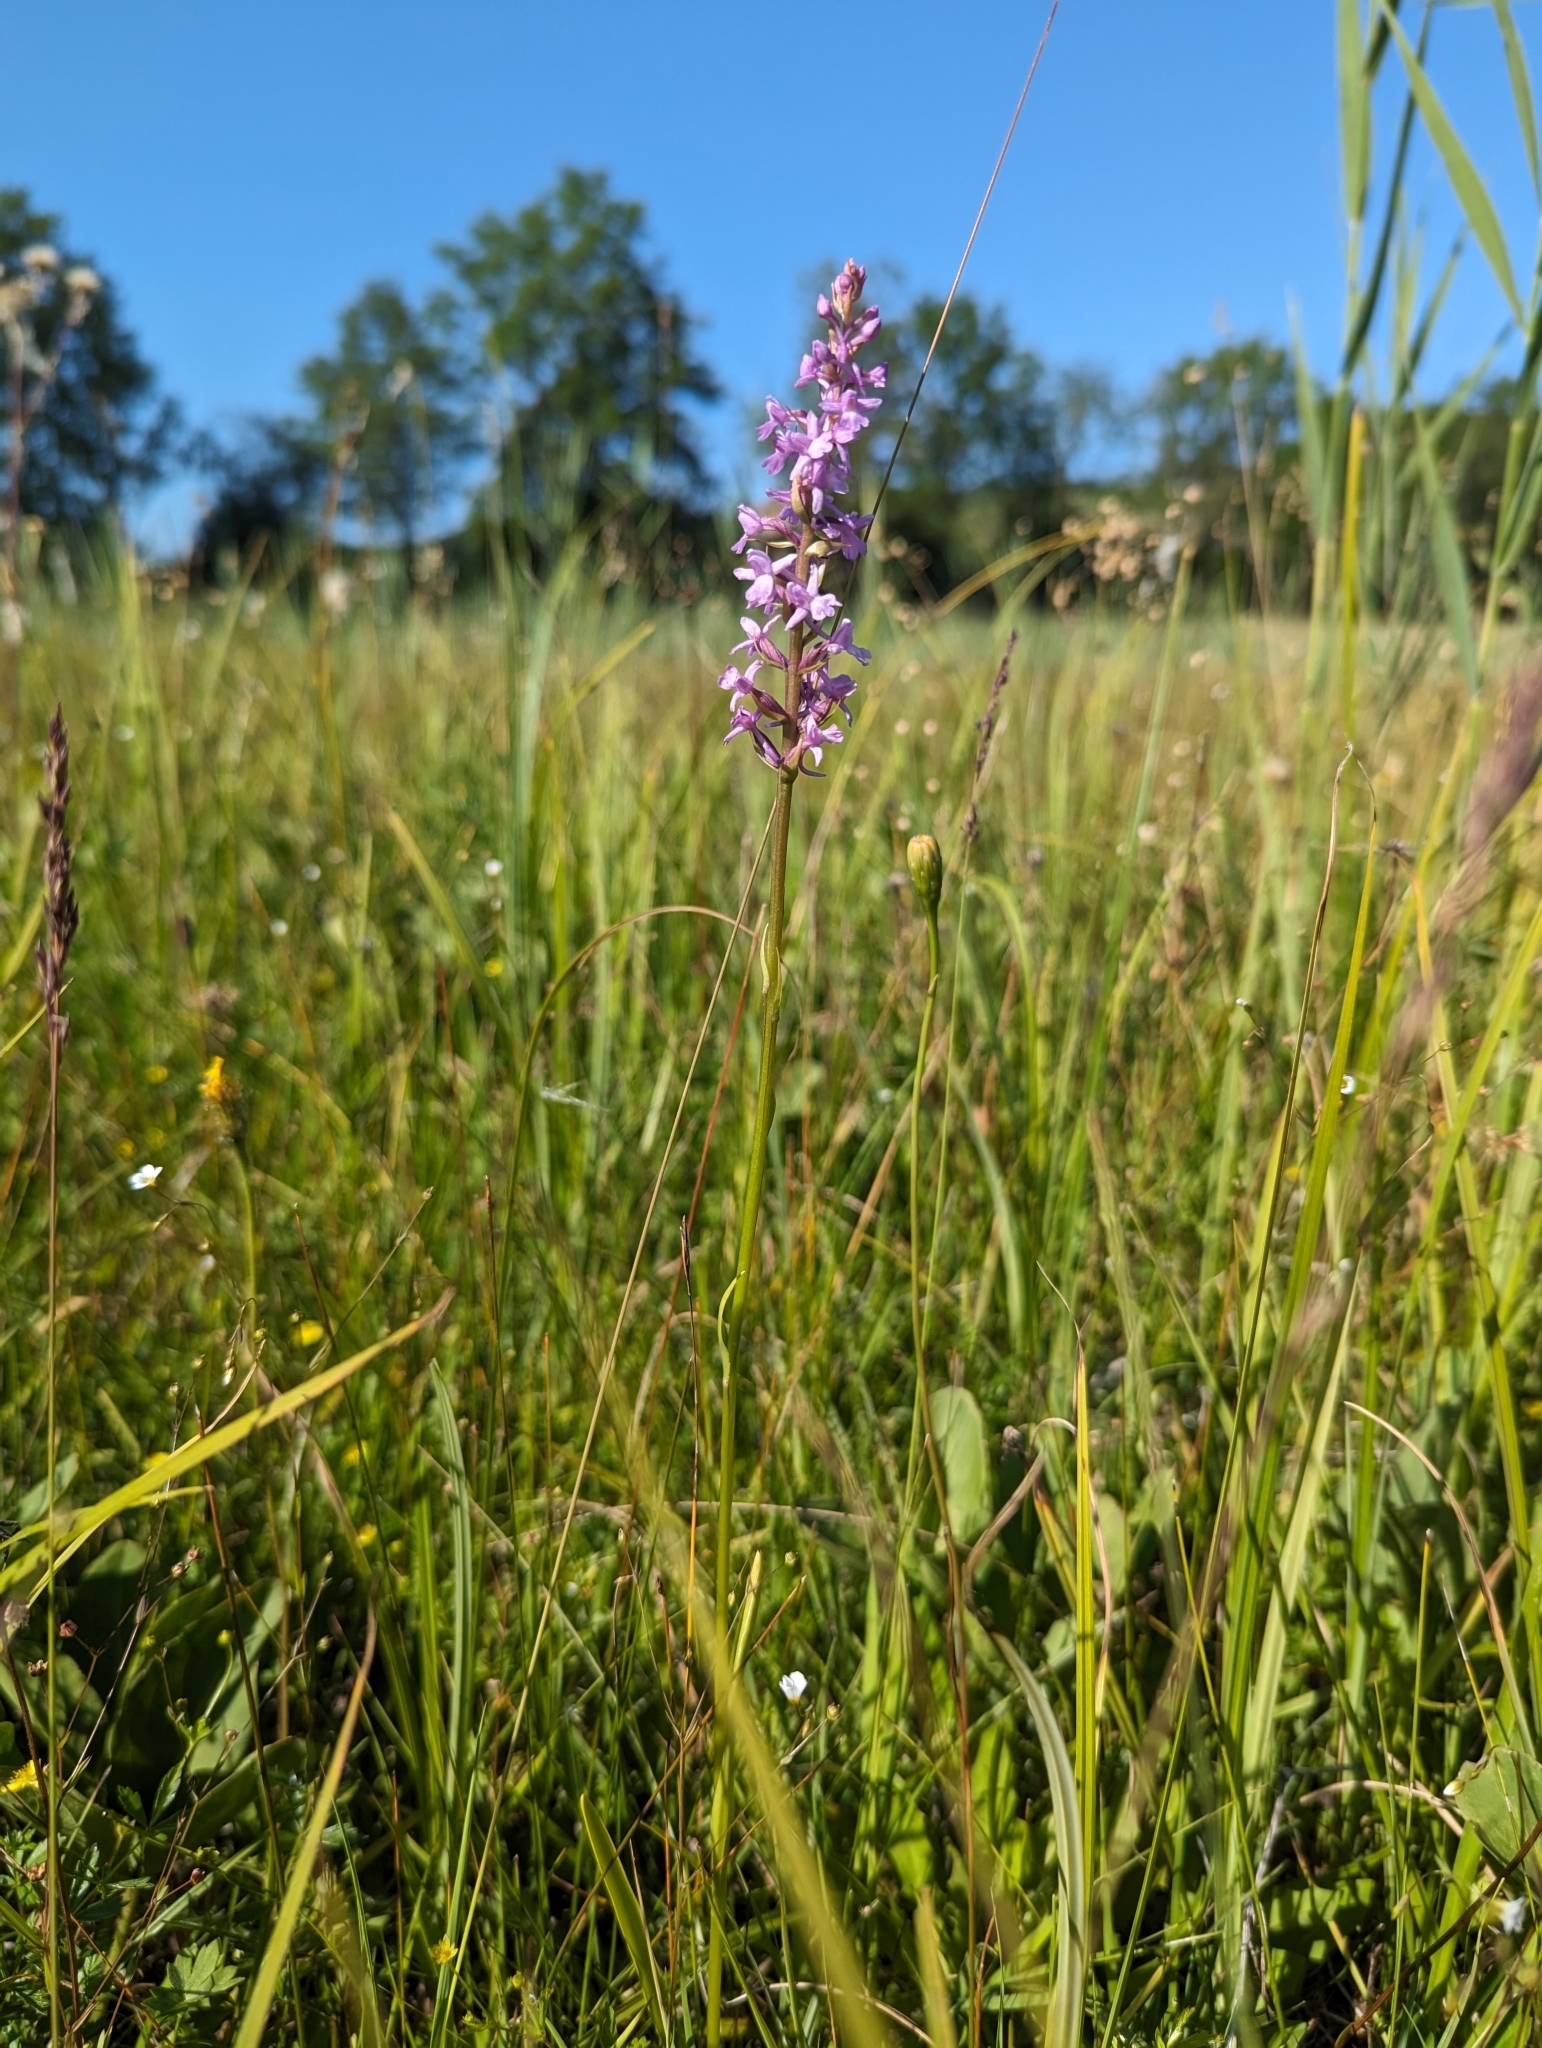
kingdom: Plantae
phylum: Tracheophyta
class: Liliopsida
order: Asparagales
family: Orchidaceae
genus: Gymnadenia
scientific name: Gymnadenia conopsea
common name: Fragrant orchid
